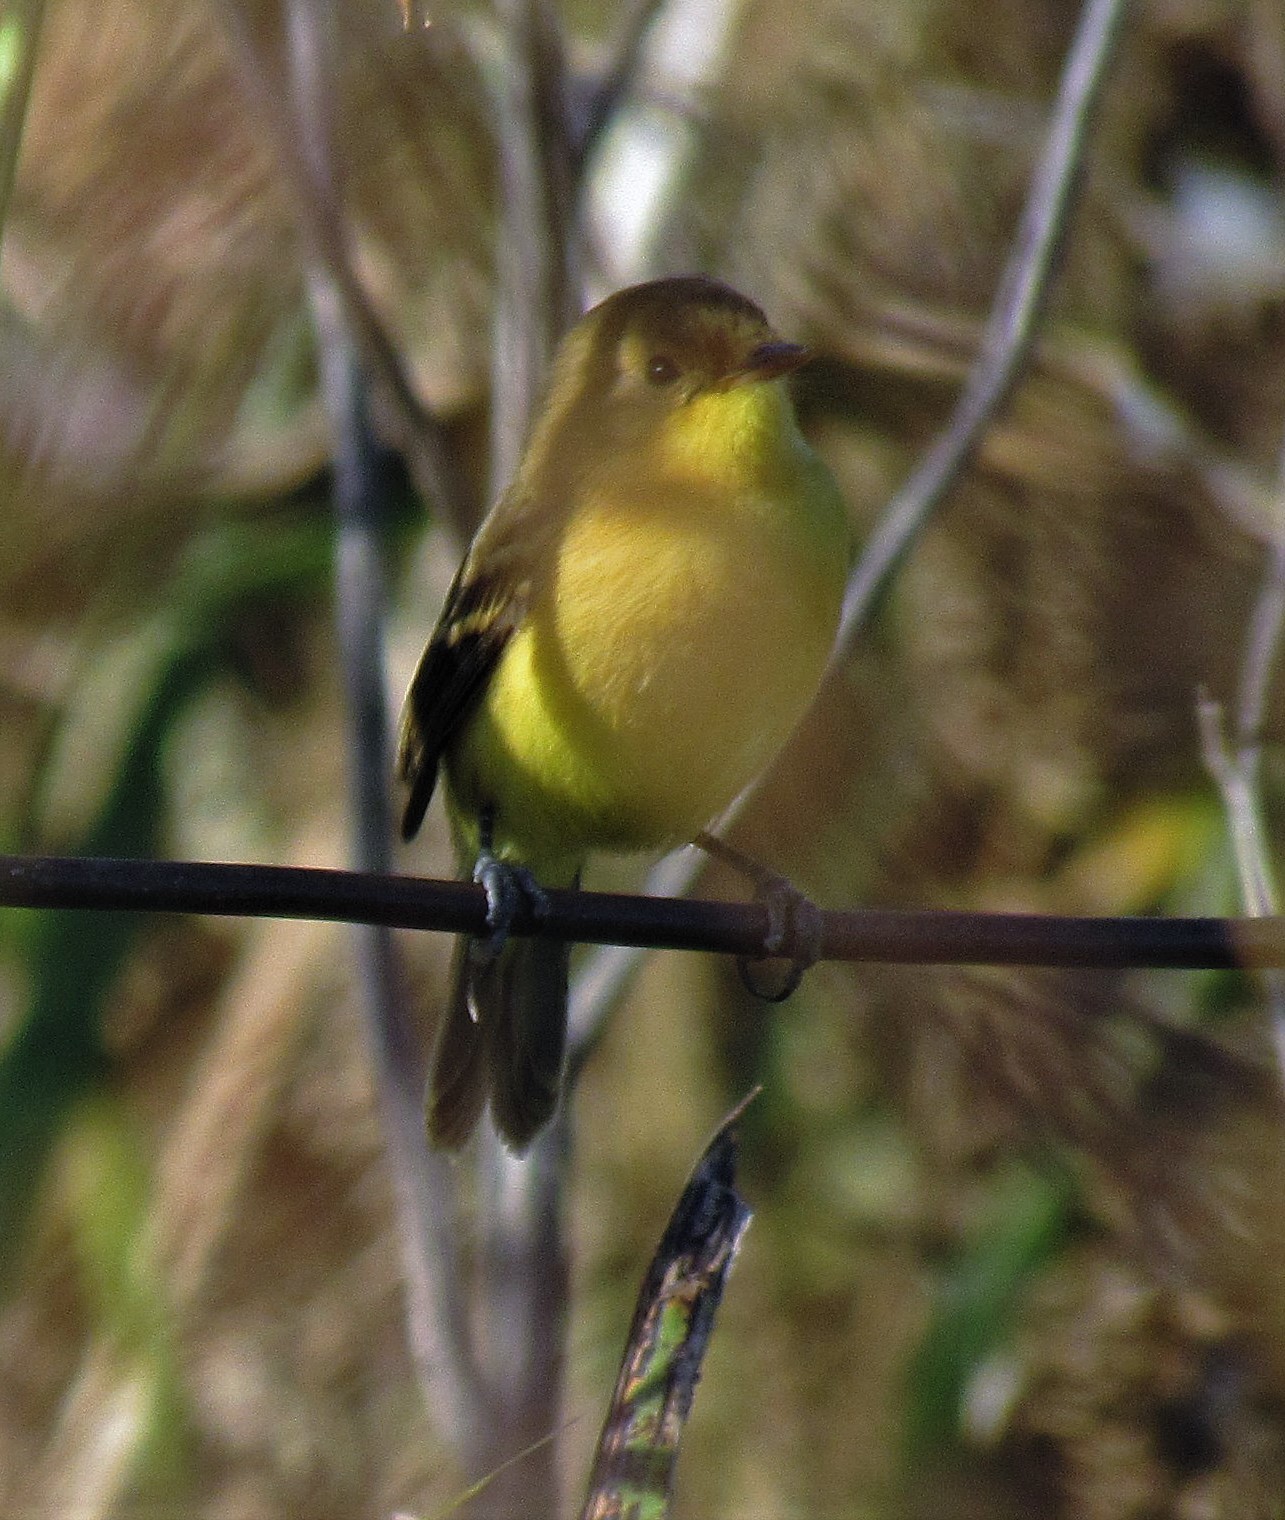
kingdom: Animalia
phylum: Chordata
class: Aves
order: Passeriformes
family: Tyrannidae
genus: Pseudocolopteryx
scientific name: Pseudocolopteryx acutipennis
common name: Subtropical doradito
